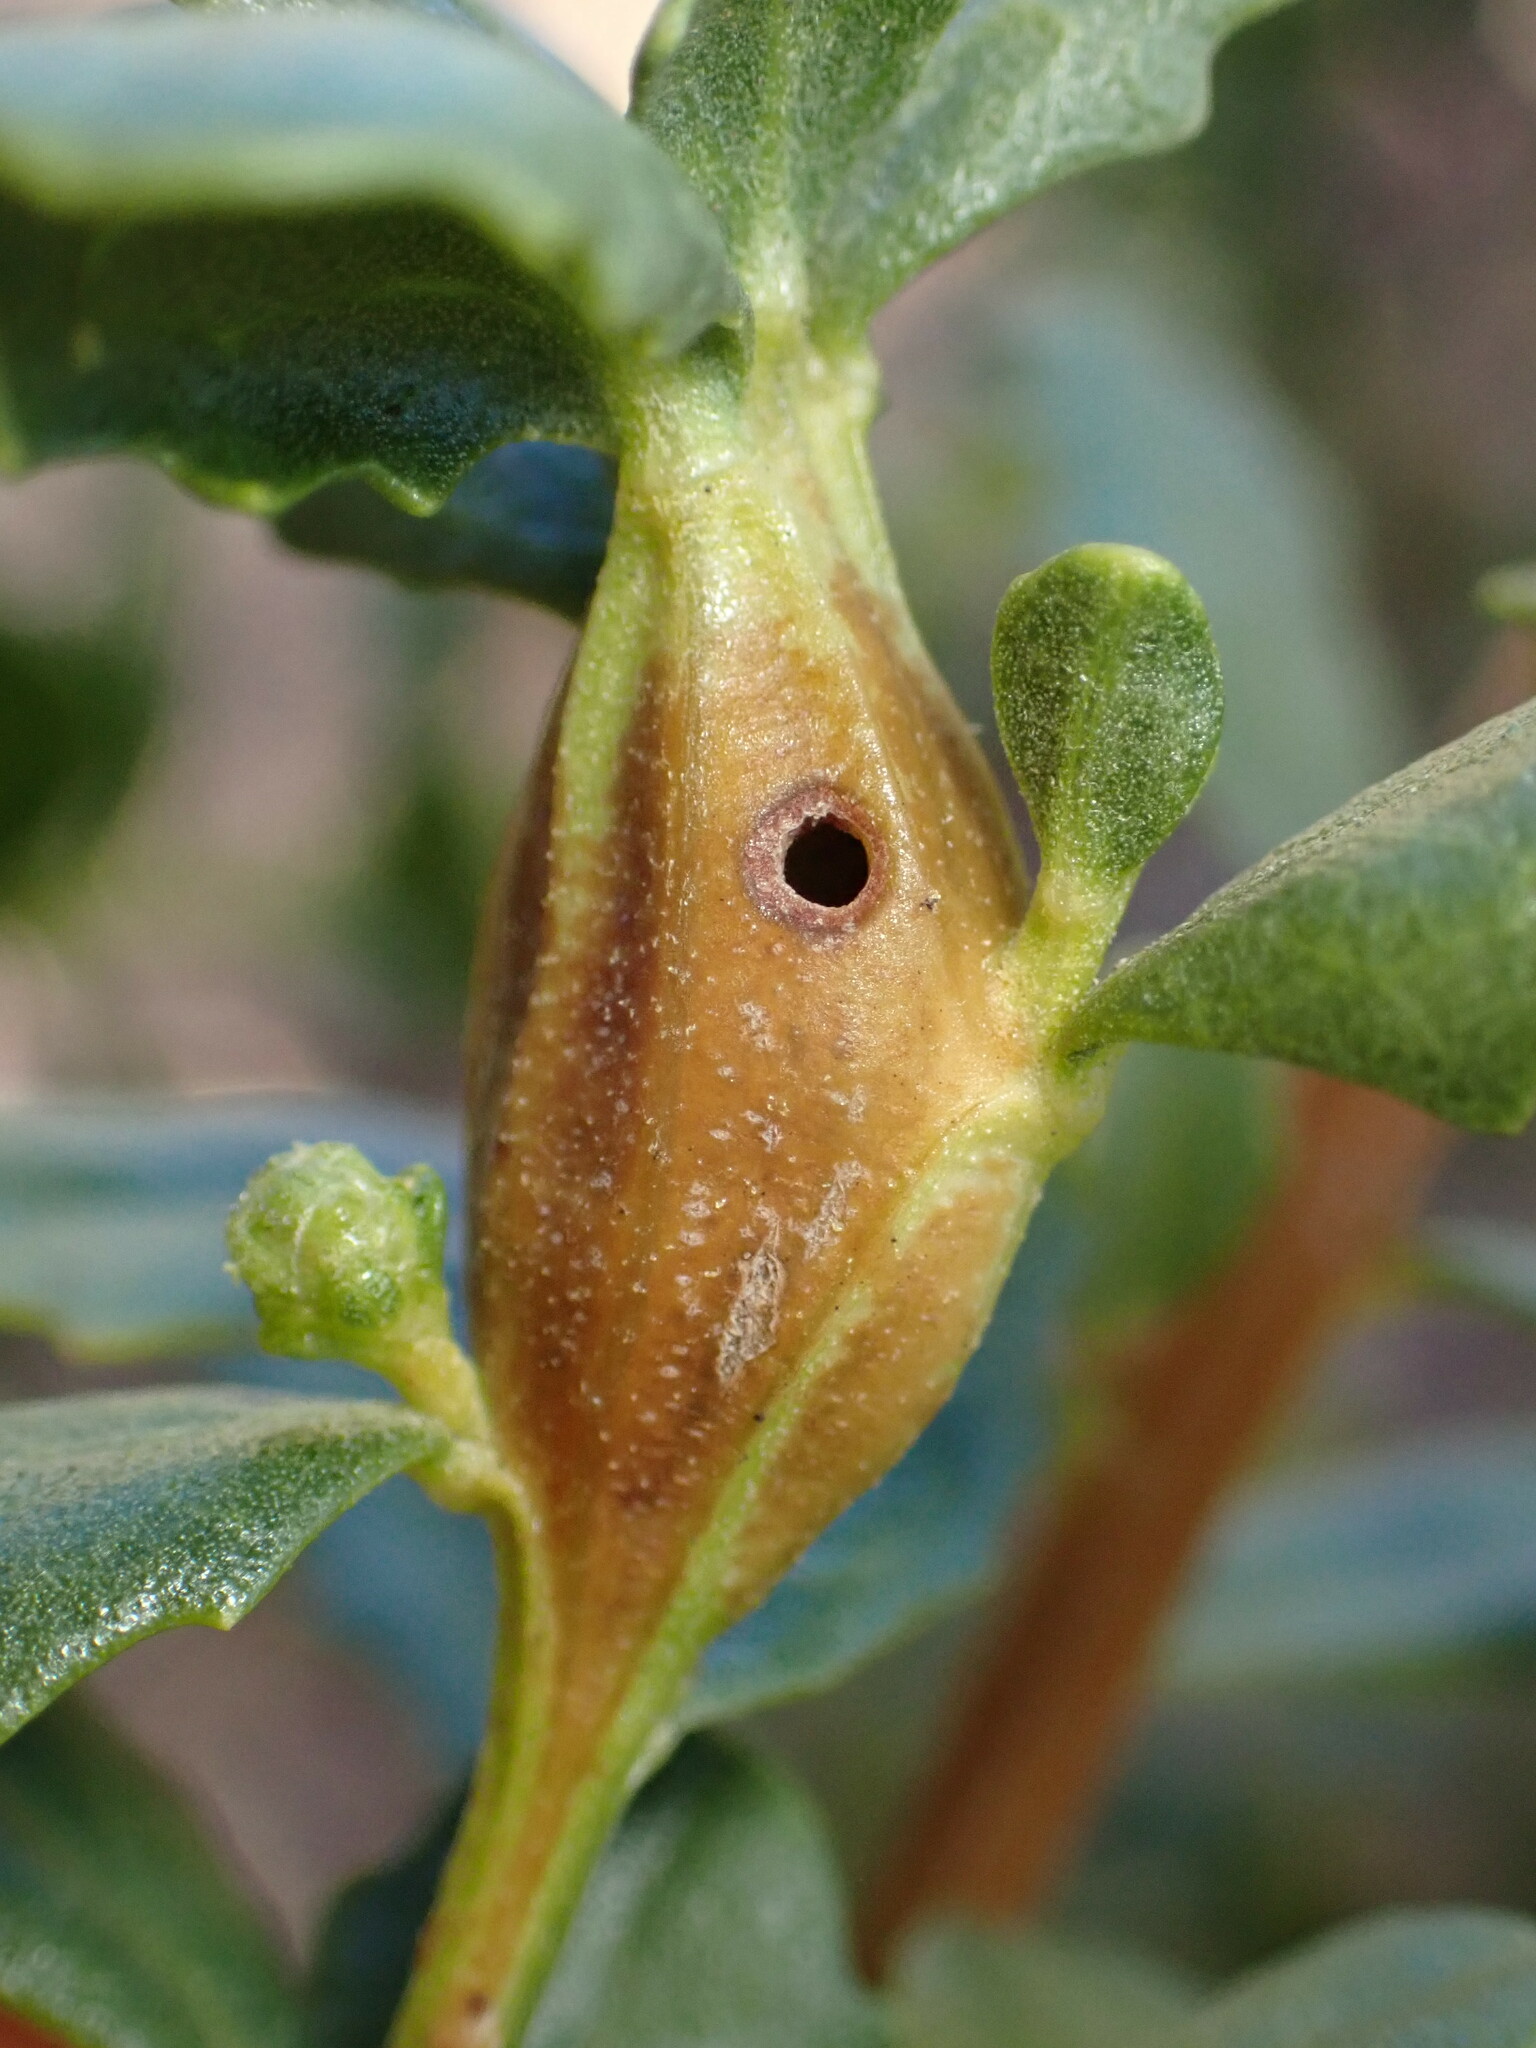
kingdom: Animalia
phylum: Arthropoda
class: Insecta
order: Lepidoptera
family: Gelechiidae
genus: Gnorimoschema
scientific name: Gnorimoschema baccharisella
